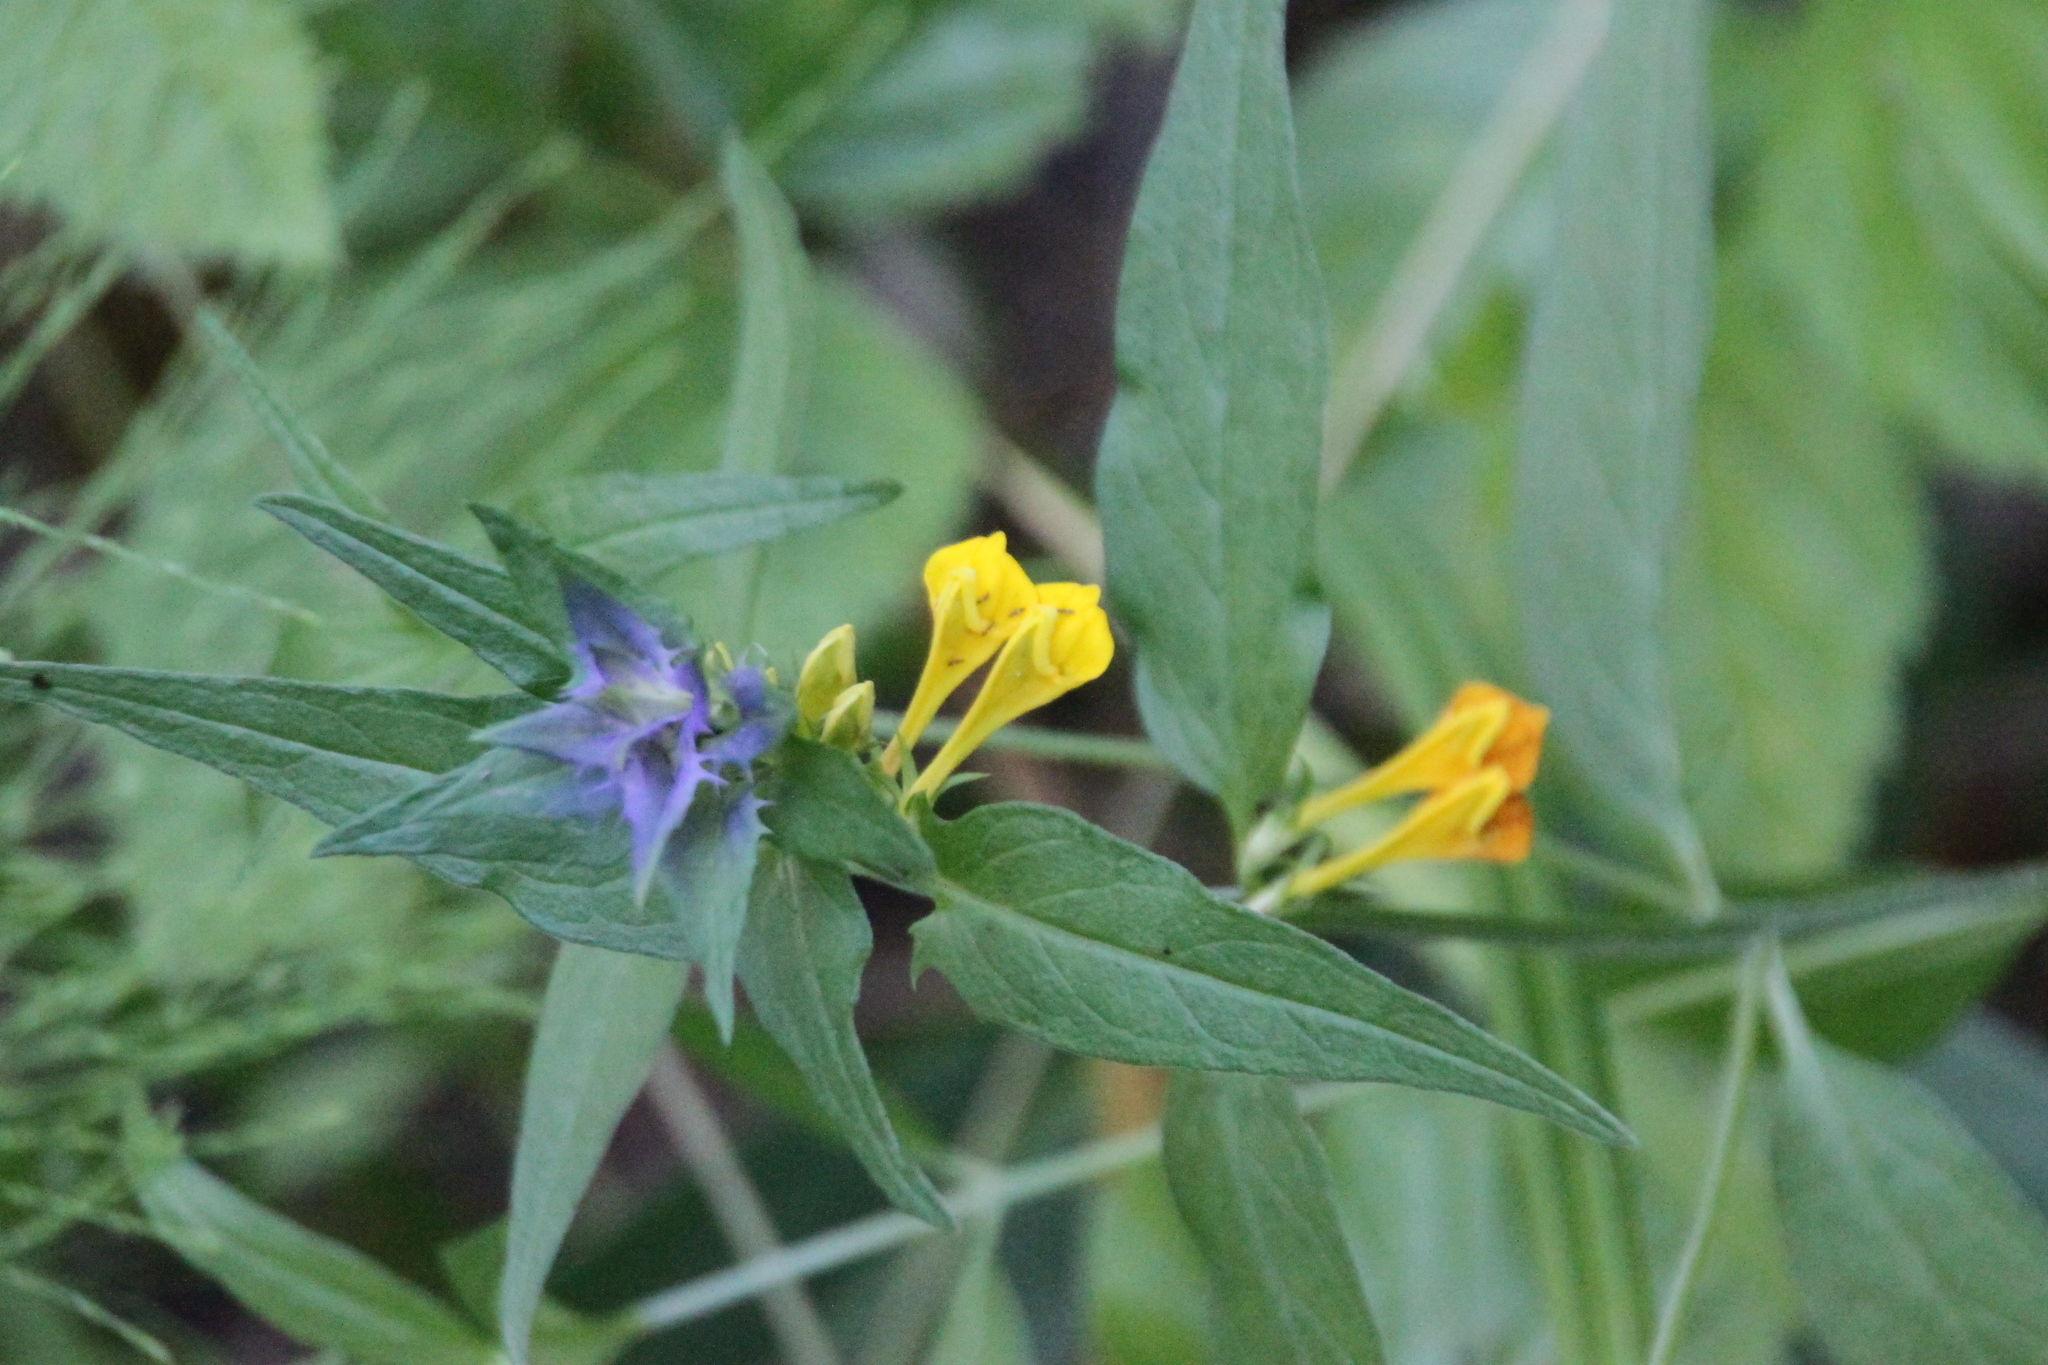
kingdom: Plantae
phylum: Tracheophyta
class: Magnoliopsida
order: Lamiales
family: Orobanchaceae
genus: Melampyrum
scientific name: Melampyrum nemorosum
